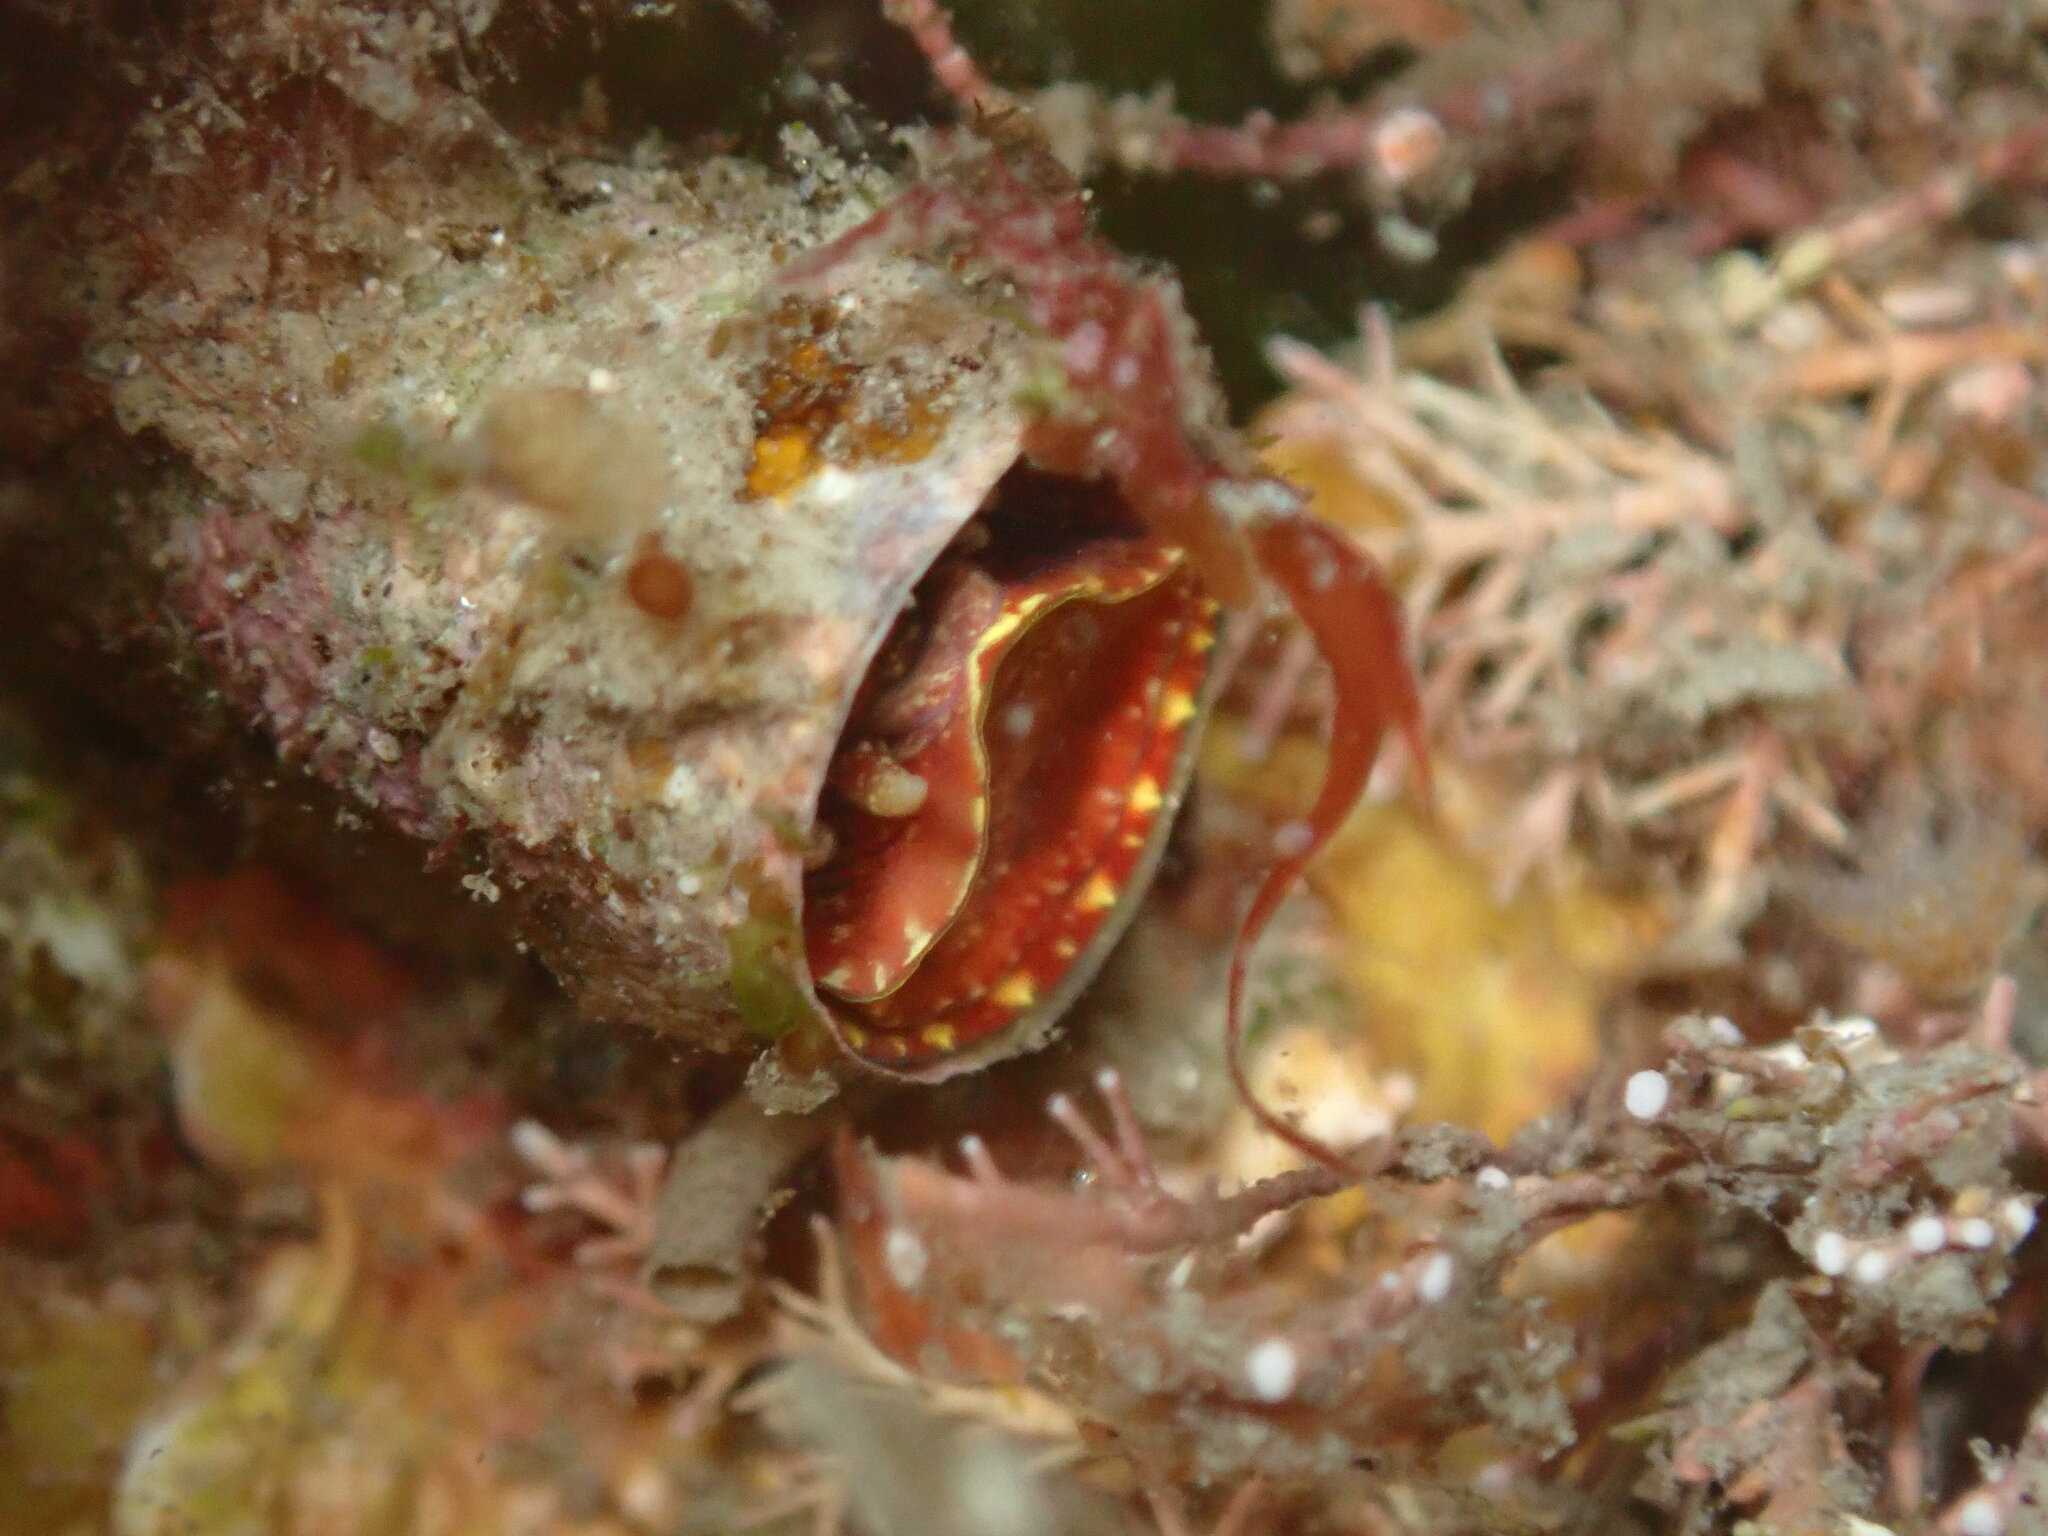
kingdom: Animalia
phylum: Mollusca
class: Gastropoda
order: Littorinimorpha
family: Vermetidae
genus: Thylacodes
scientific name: Thylacodes zelandicus
